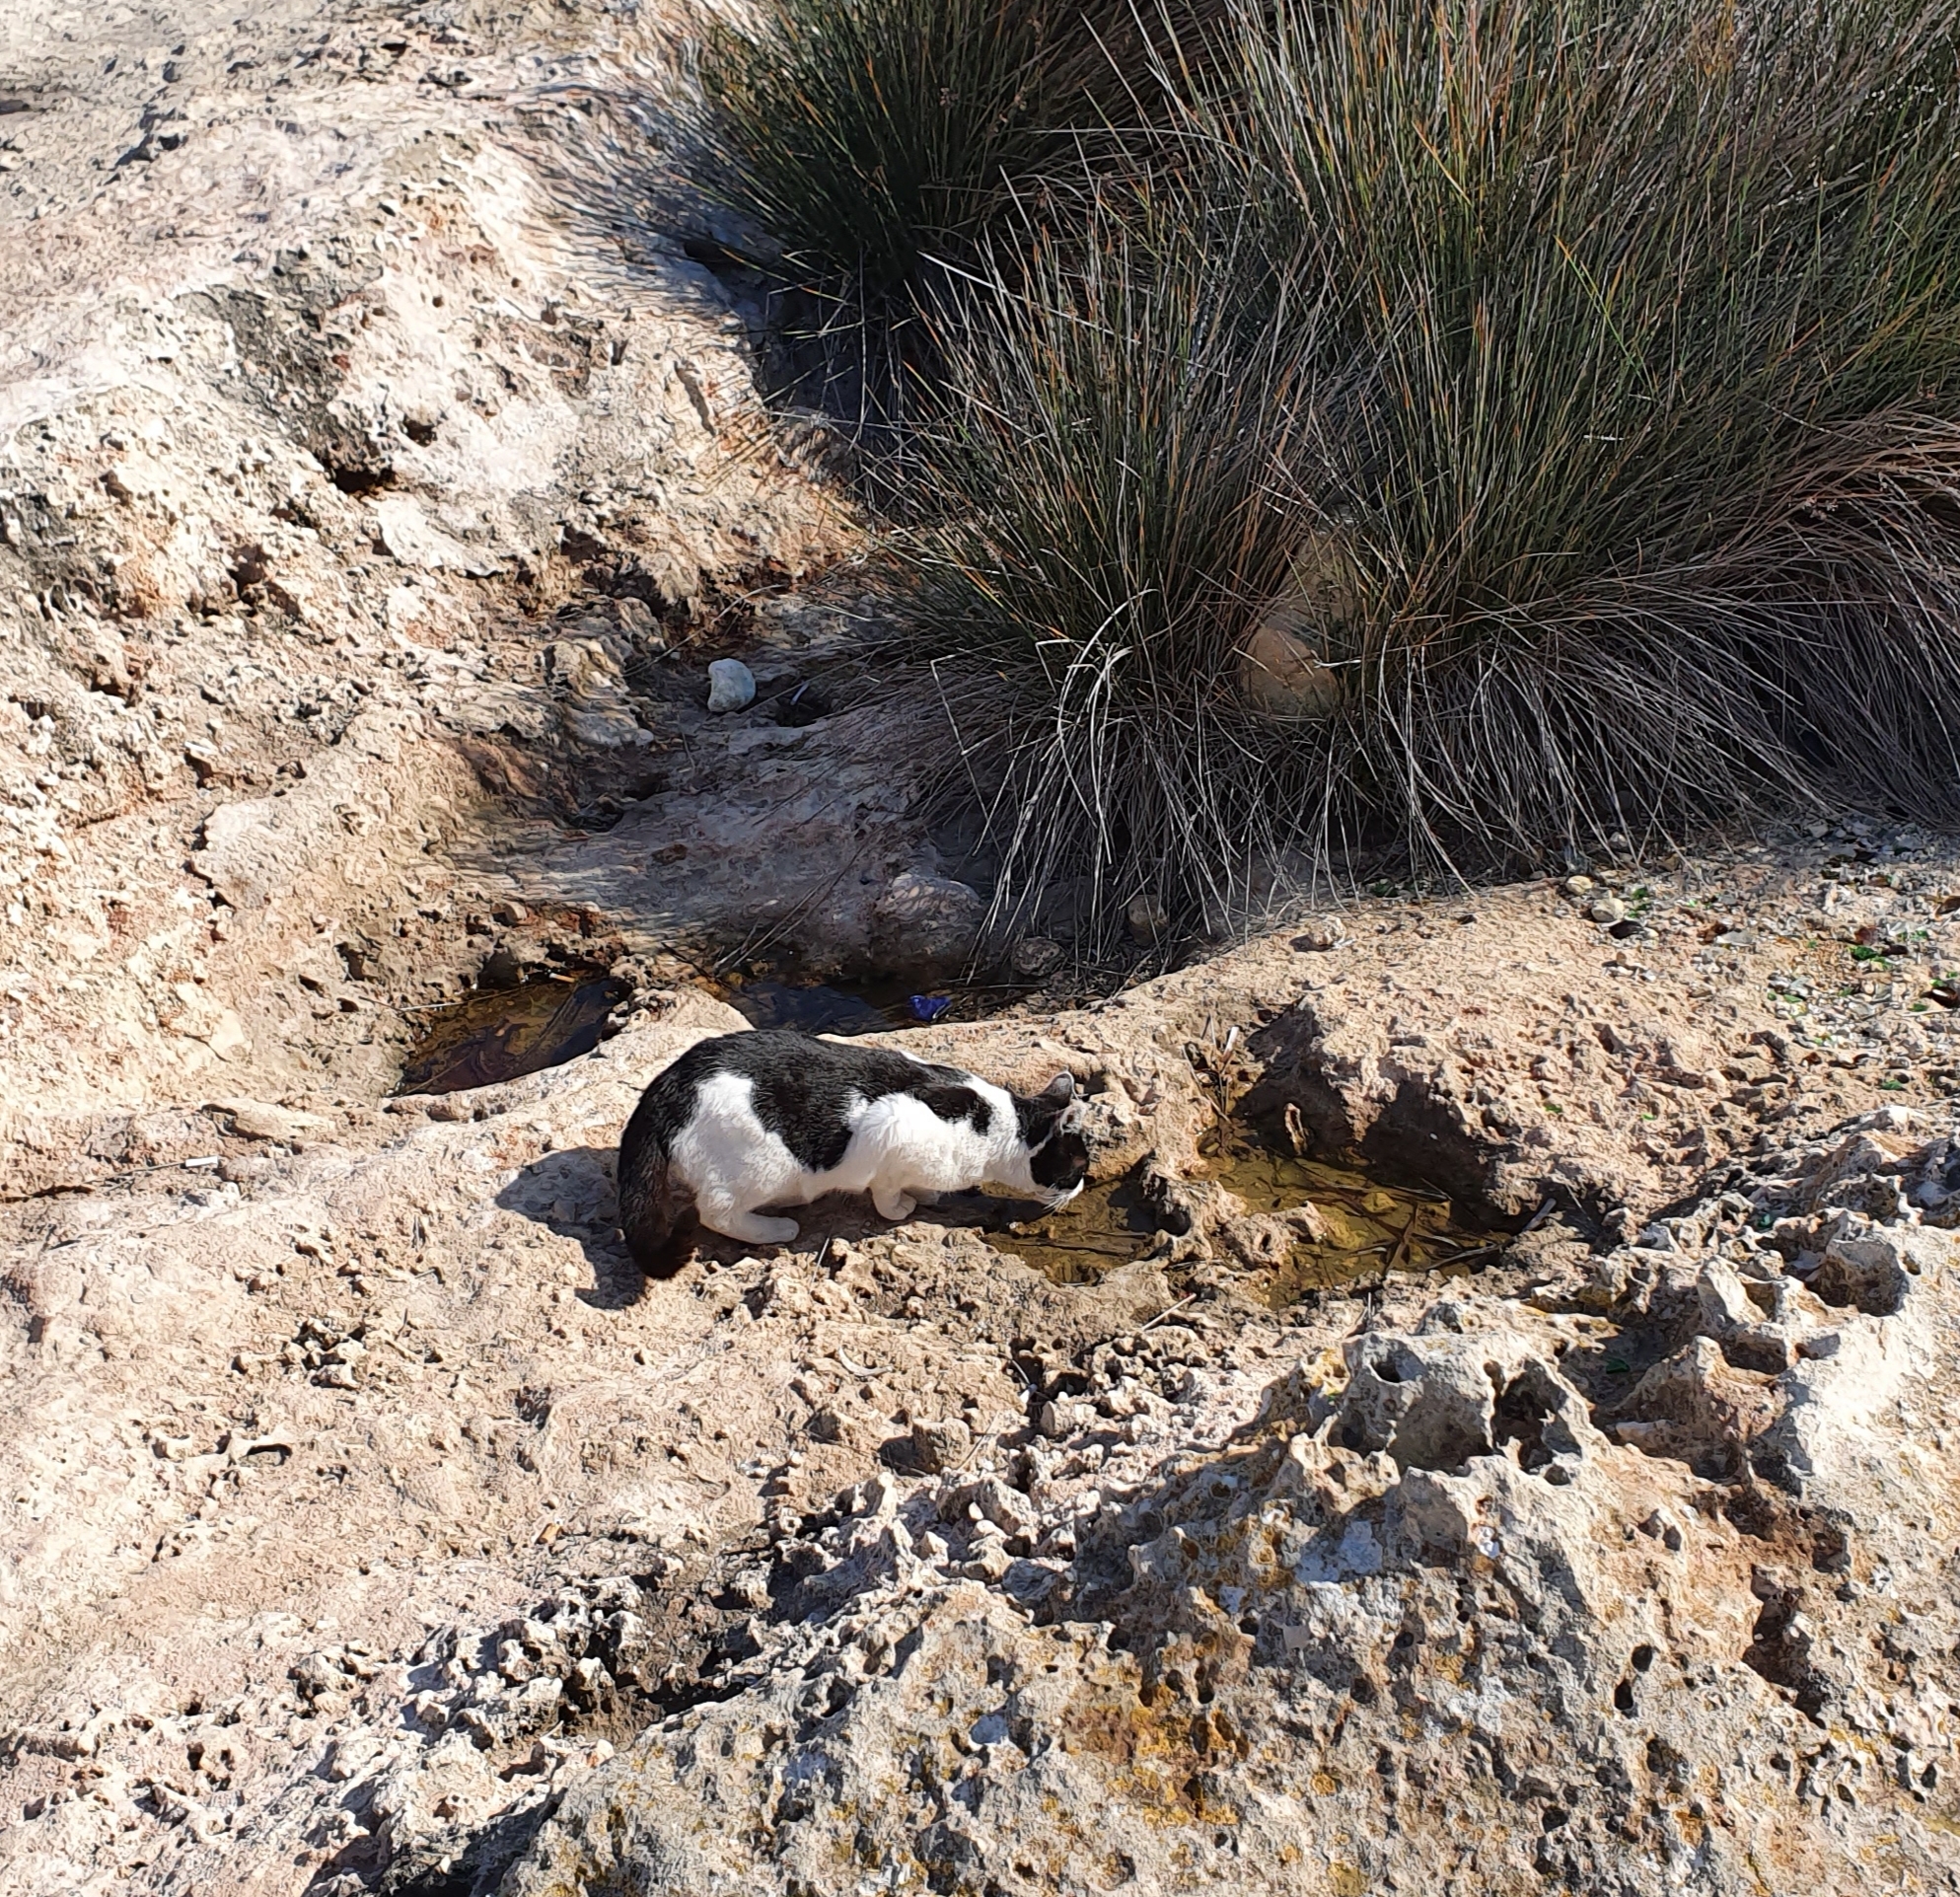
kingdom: Animalia
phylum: Chordata
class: Mammalia
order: Carnivora
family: Felidae
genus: Felis
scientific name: Felis catus
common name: Domestic cat
